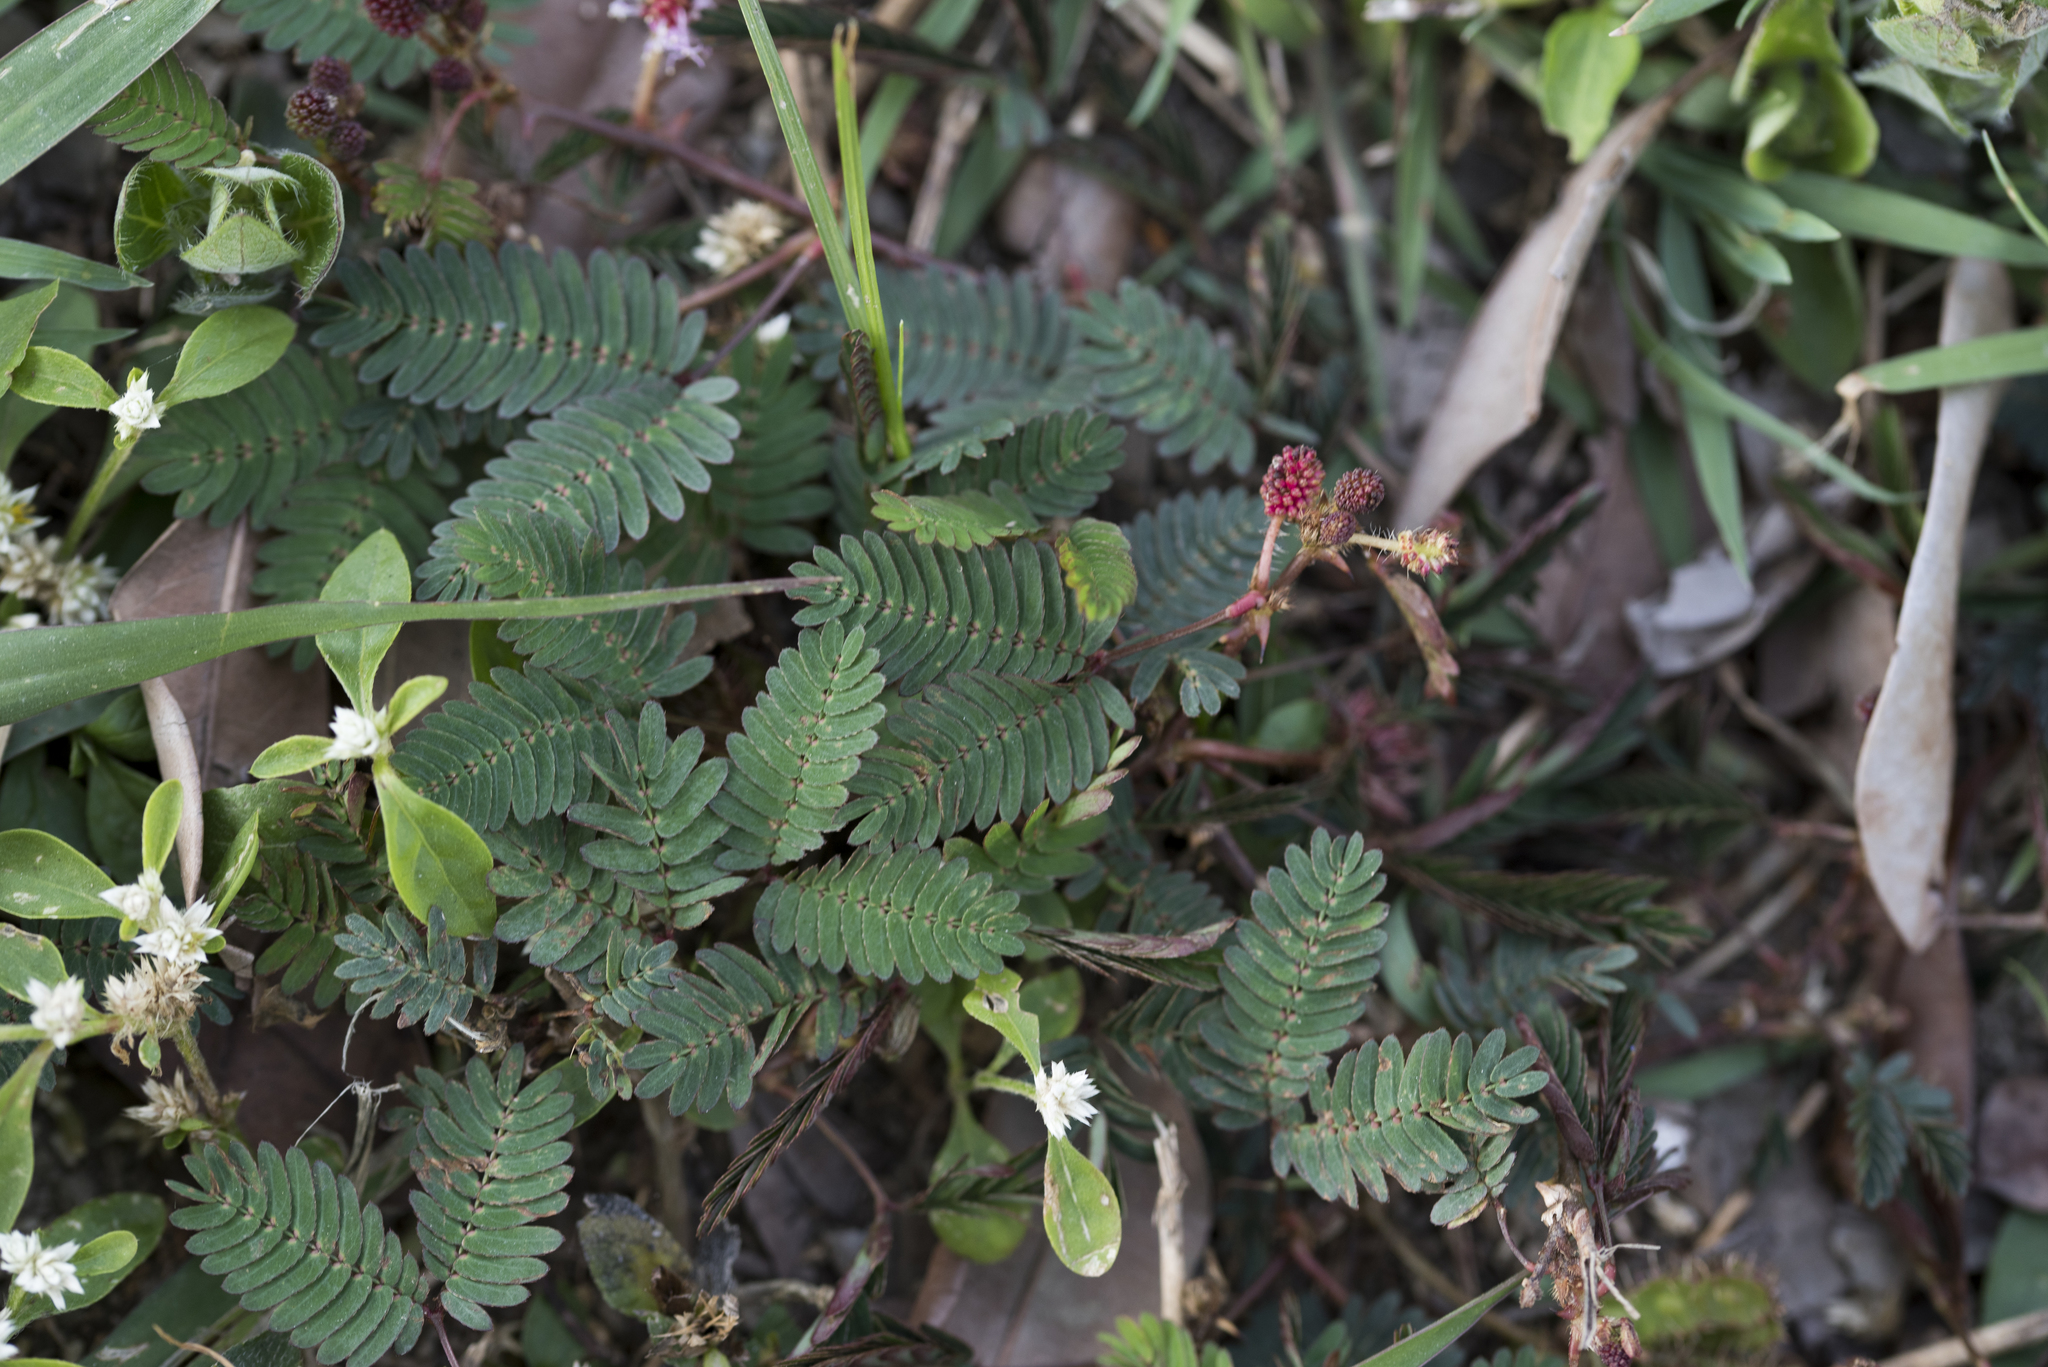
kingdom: Plantae
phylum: Tracheophyta
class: Magnoliopsida
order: Fabales
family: Fabaceae
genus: Mimosa
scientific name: Mimosa pudica
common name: Sensitive plant
